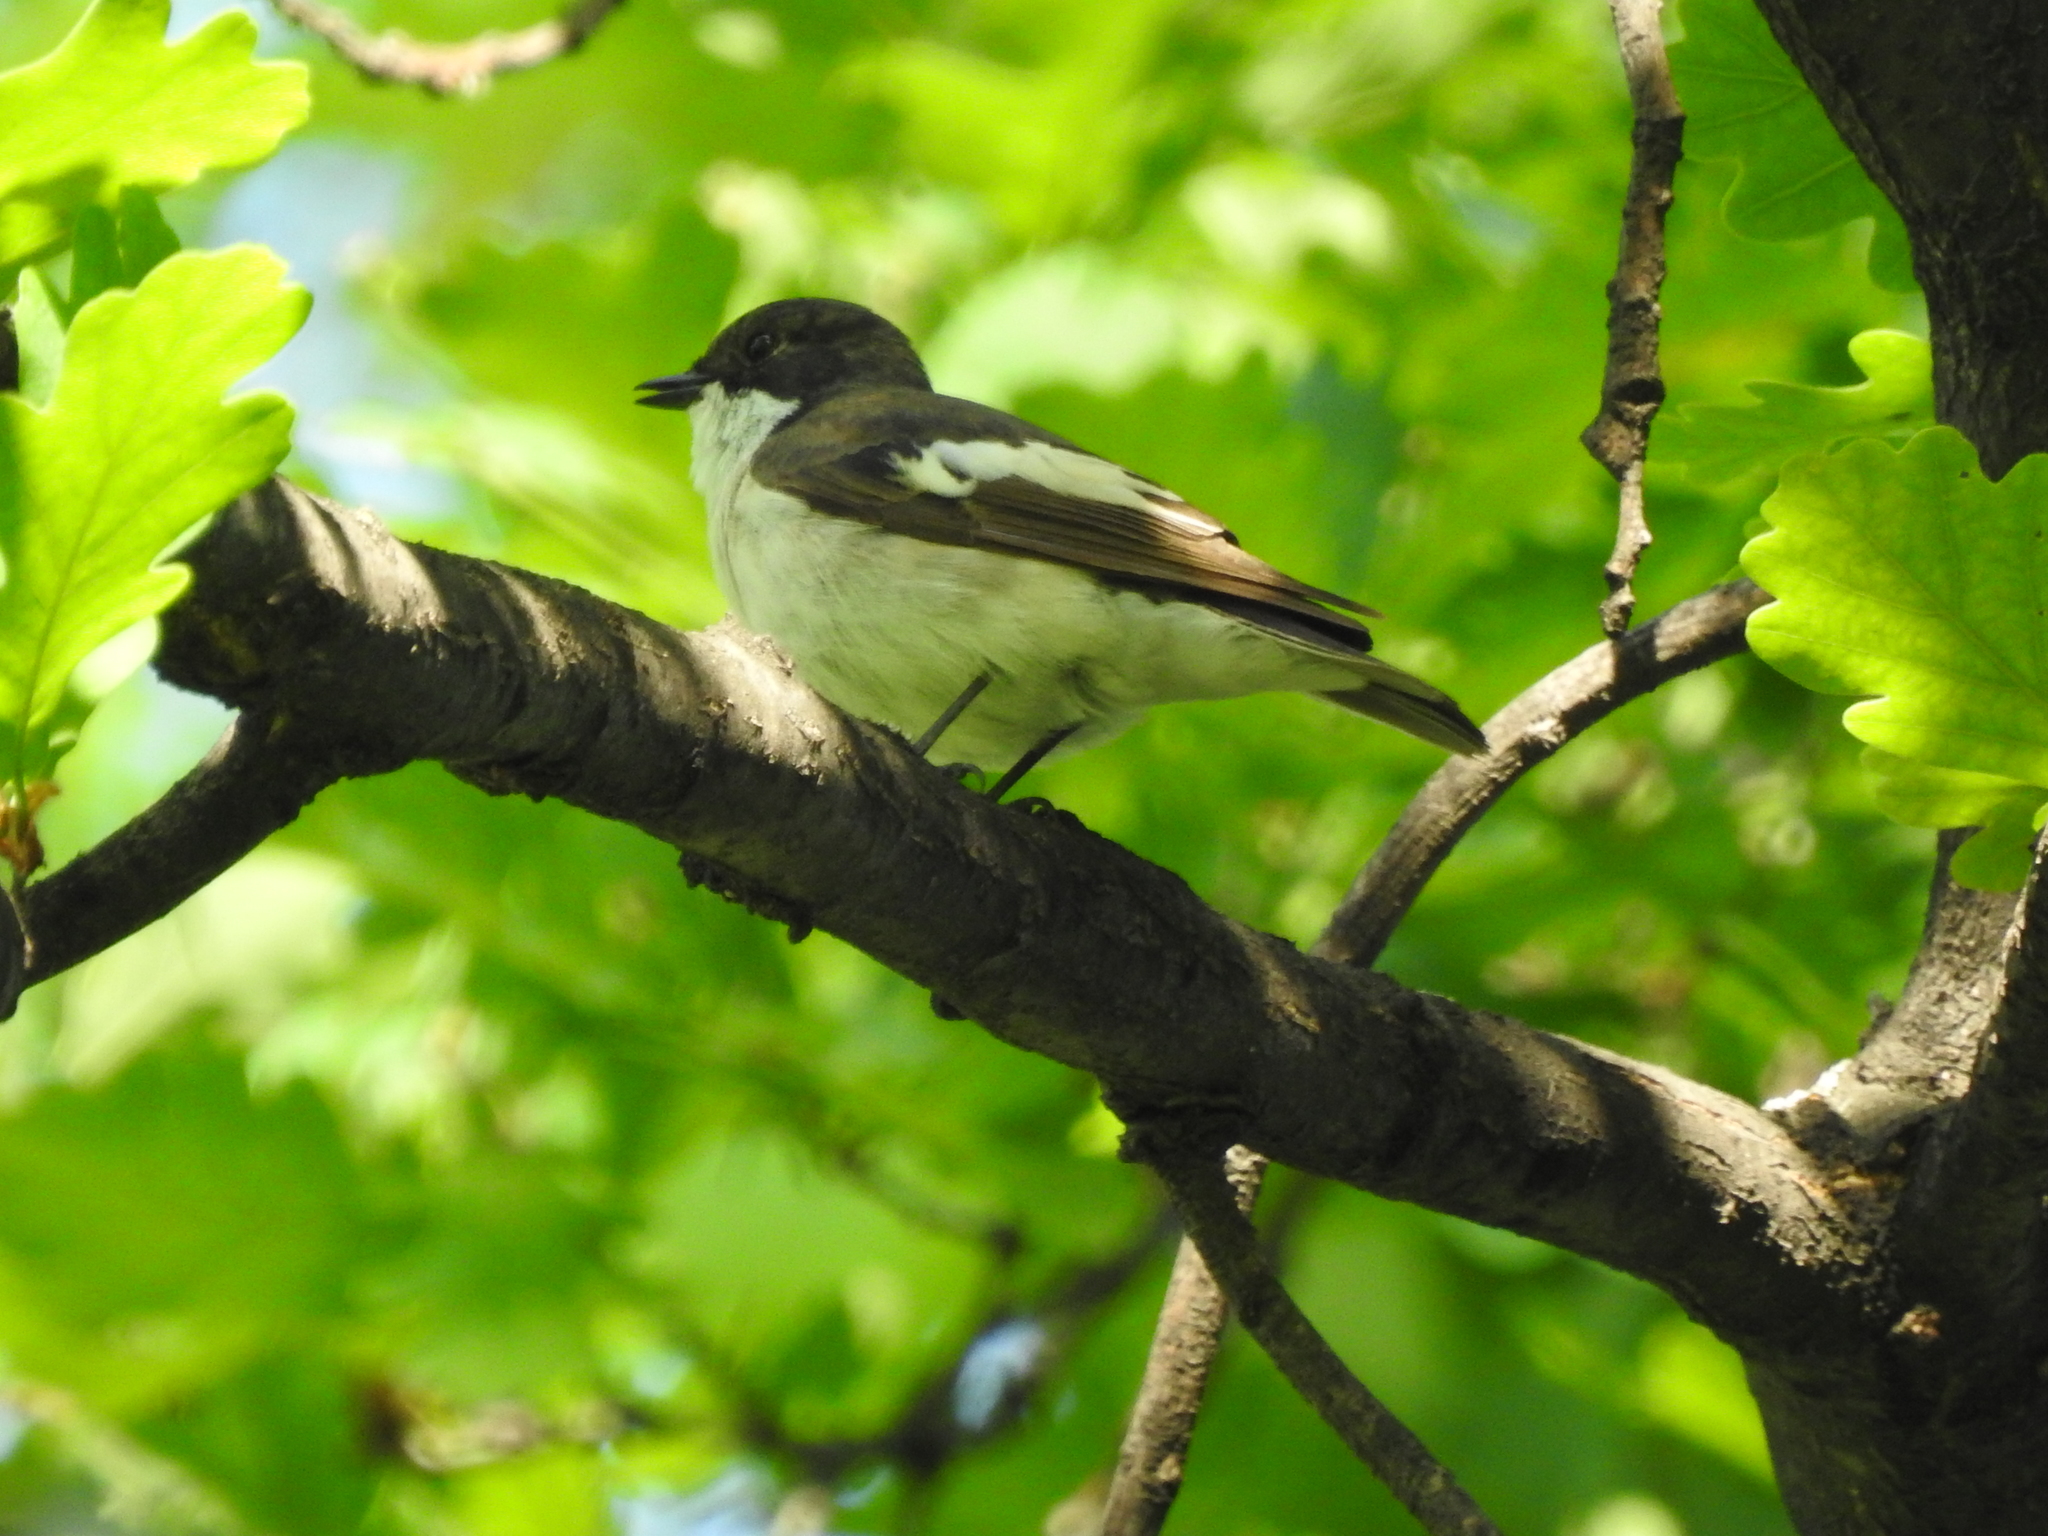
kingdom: Animalia
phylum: Chordata
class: Aves
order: Passeriformes
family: Muscicapidae
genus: Ficedula
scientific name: Ficedula hypoleuca
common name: European pied flycatcher
